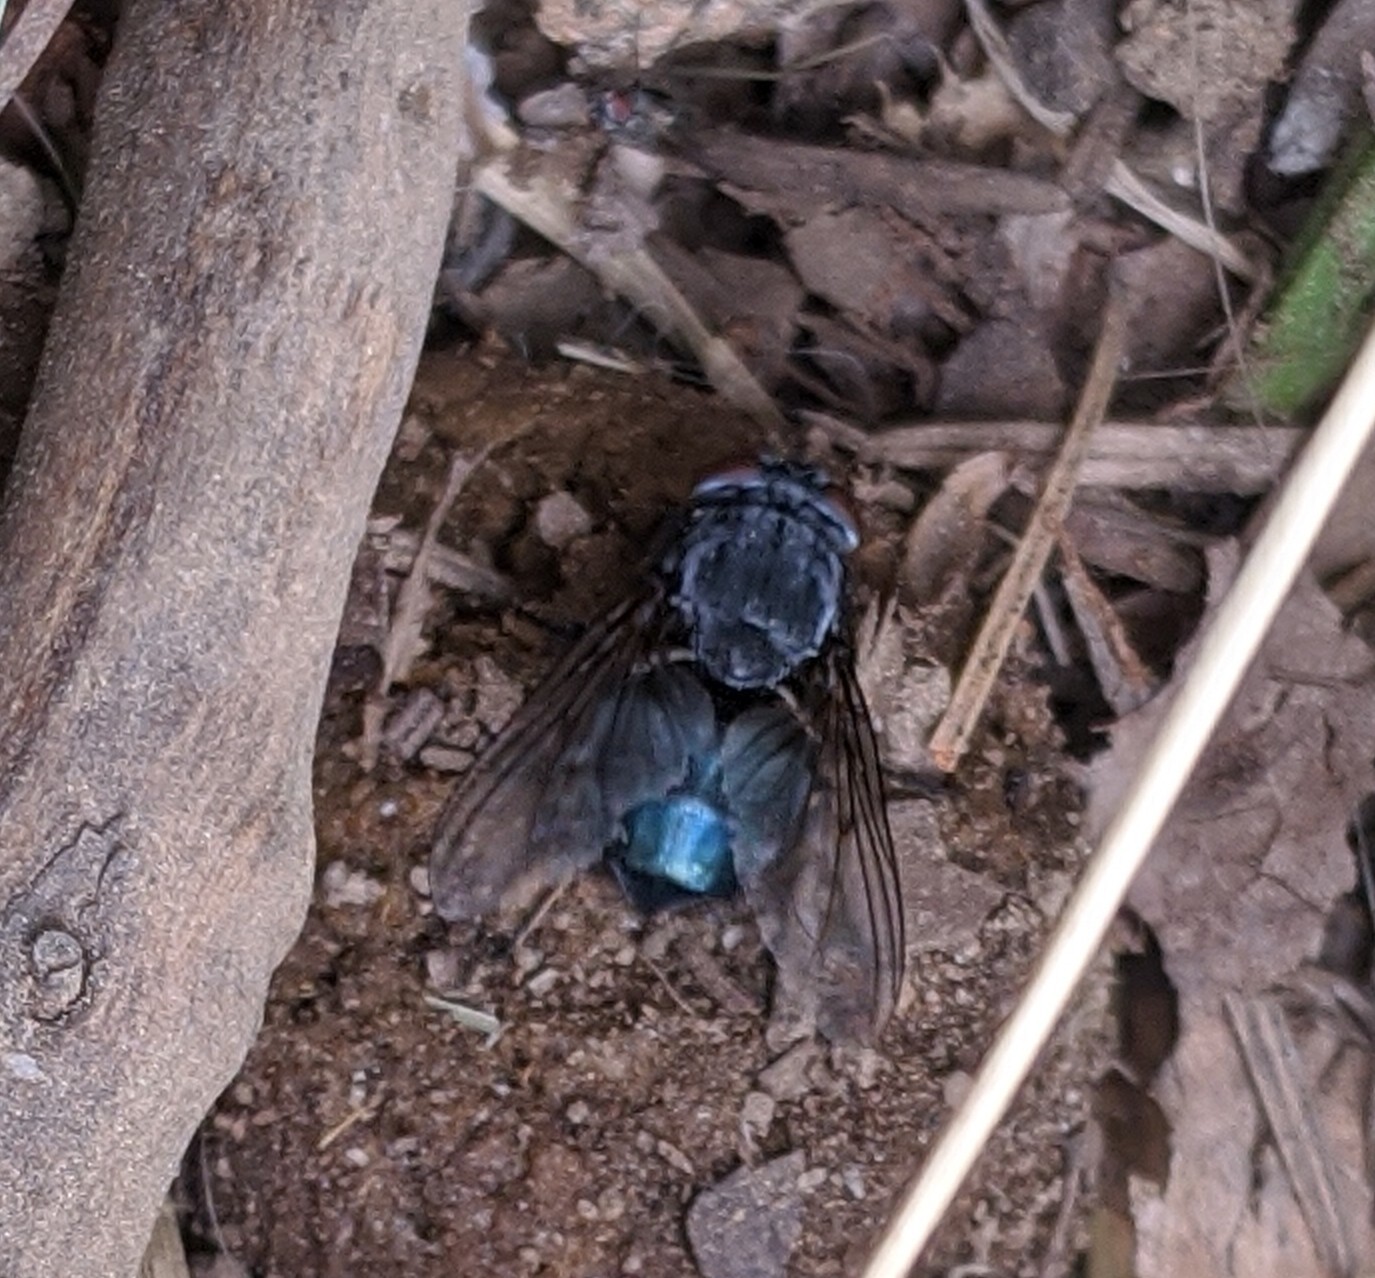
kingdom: Animalia
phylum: Arthropoda
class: Insecta
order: Diptera
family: Calliphoridae
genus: Calliphora
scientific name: Calliphora vomitoria
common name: Blue bottle fly
